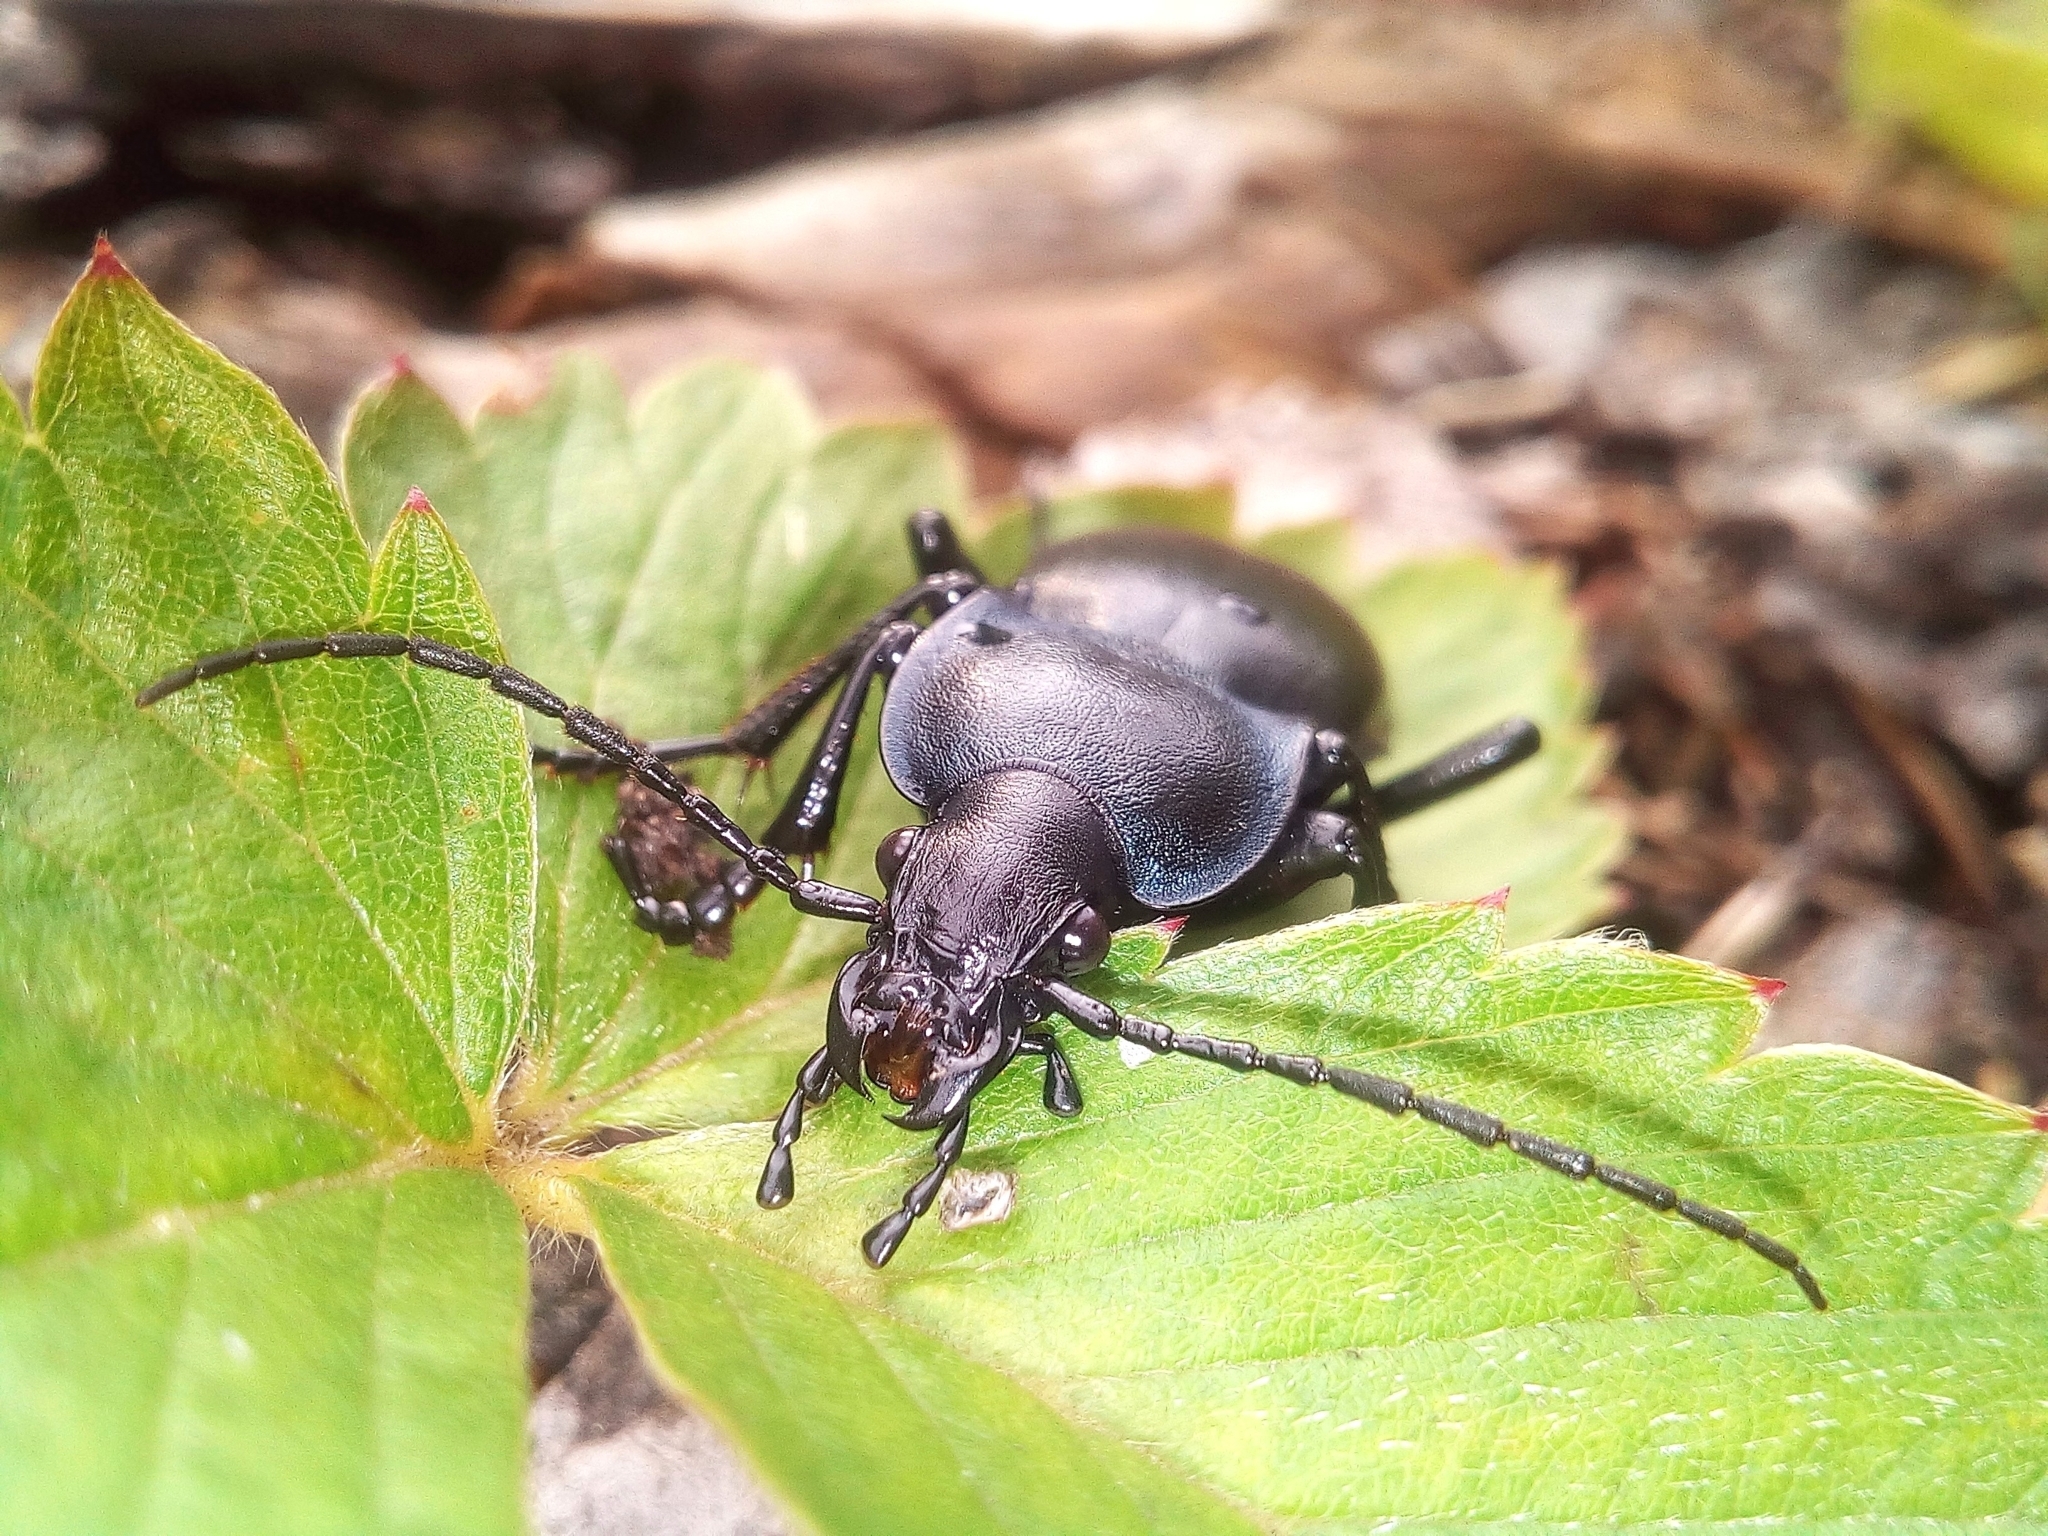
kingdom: Animalia
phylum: Arthropoda
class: Insecta
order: Coleoptera
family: Carabidae
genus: Carabus
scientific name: Carabus glabratus
